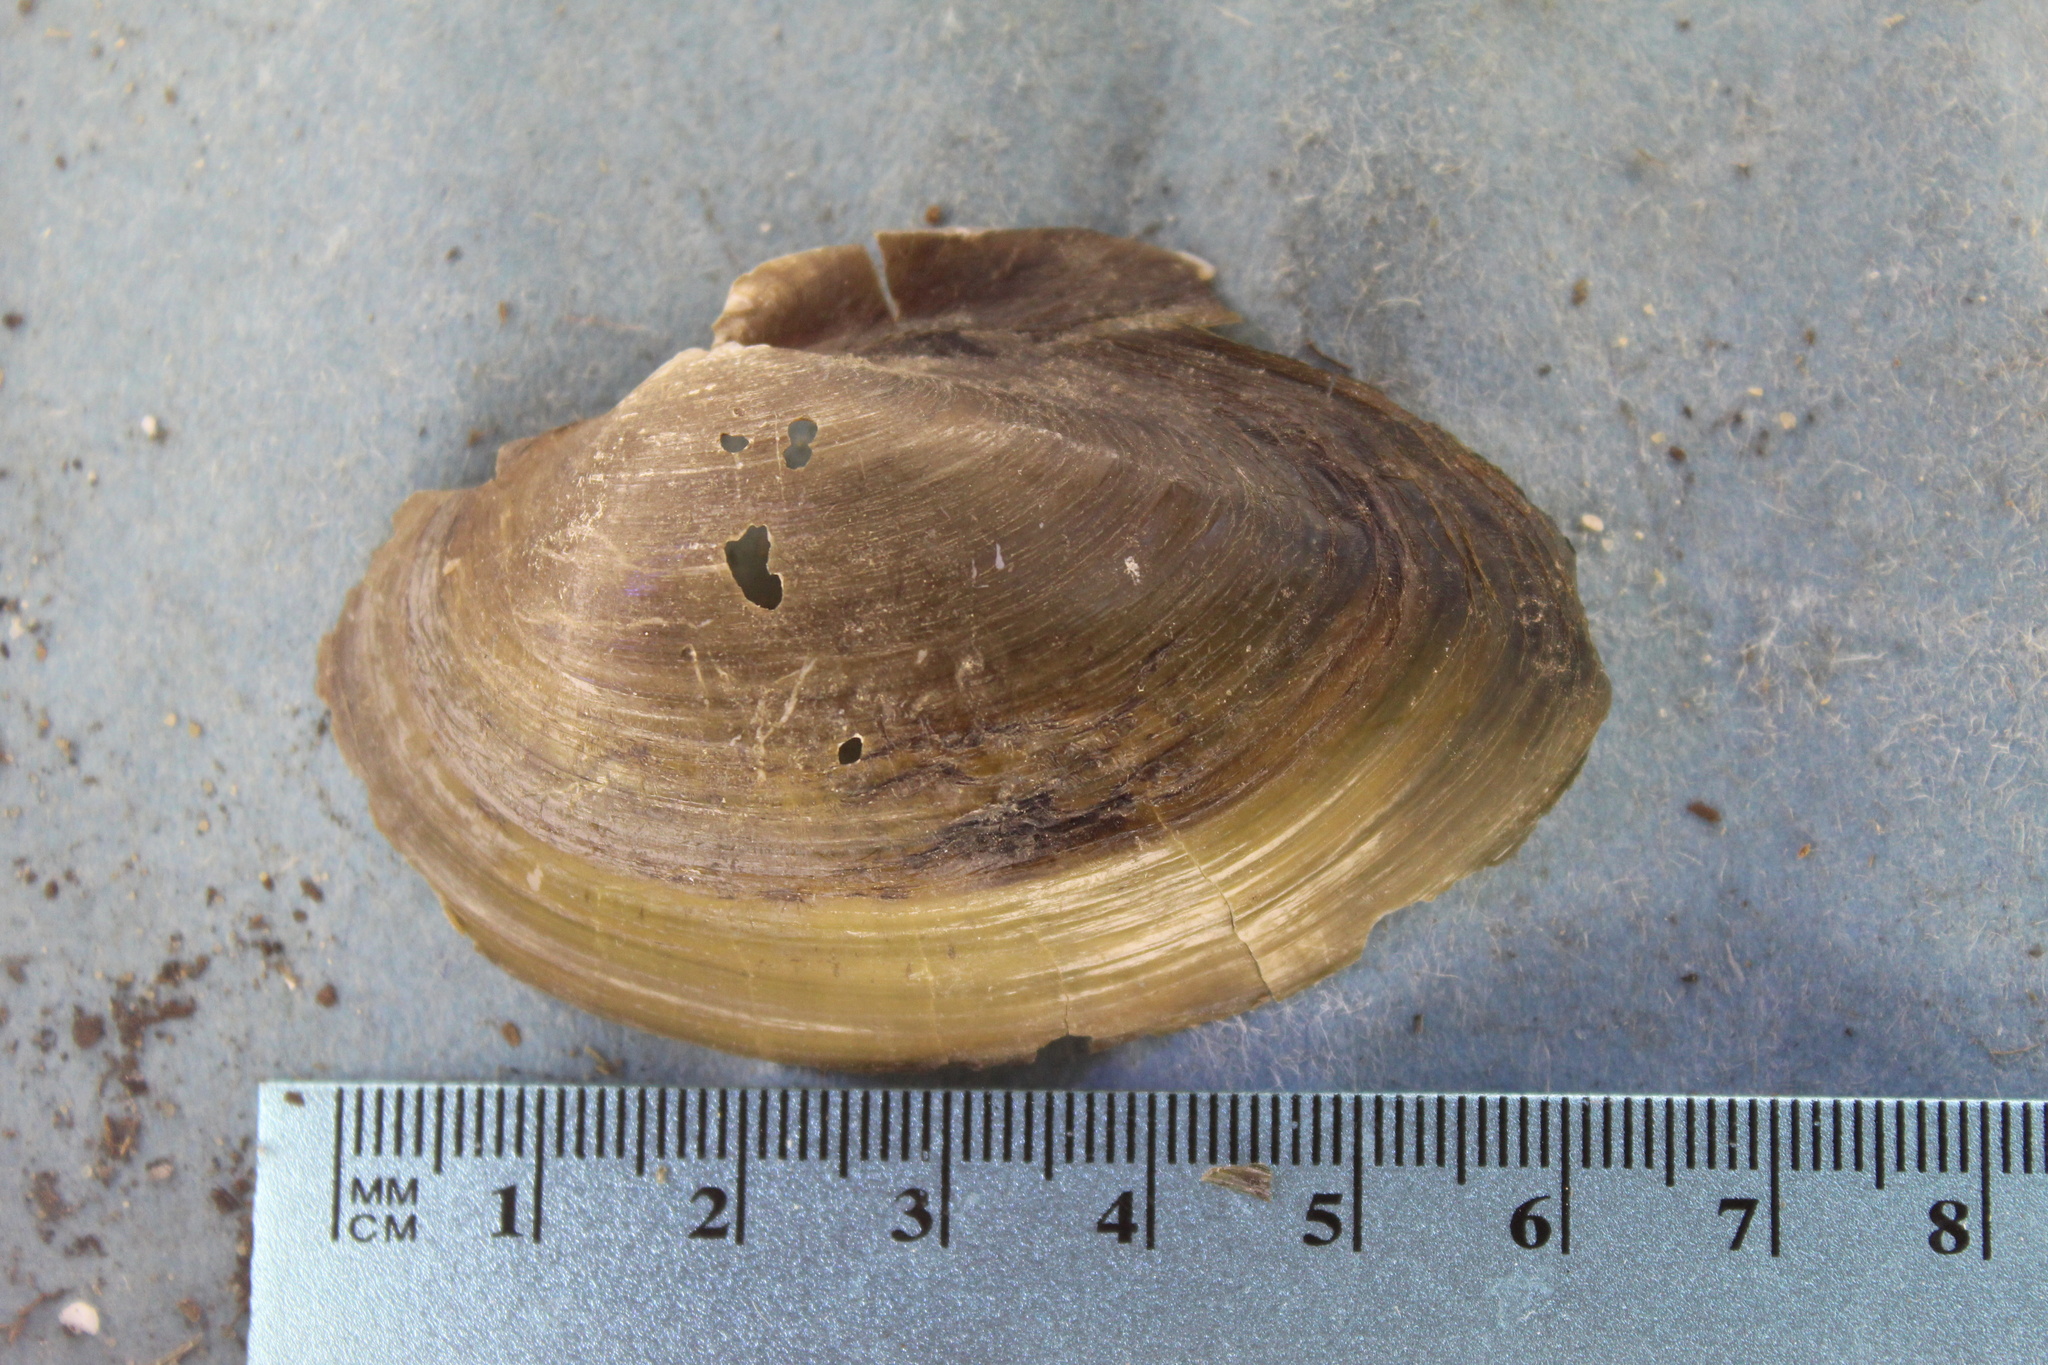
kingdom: Animalia
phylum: Mollusca
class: Bivalvia
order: Unionida
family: Unionidae
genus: Pyganodon
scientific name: Pyganodon grandis
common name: Giant floater
